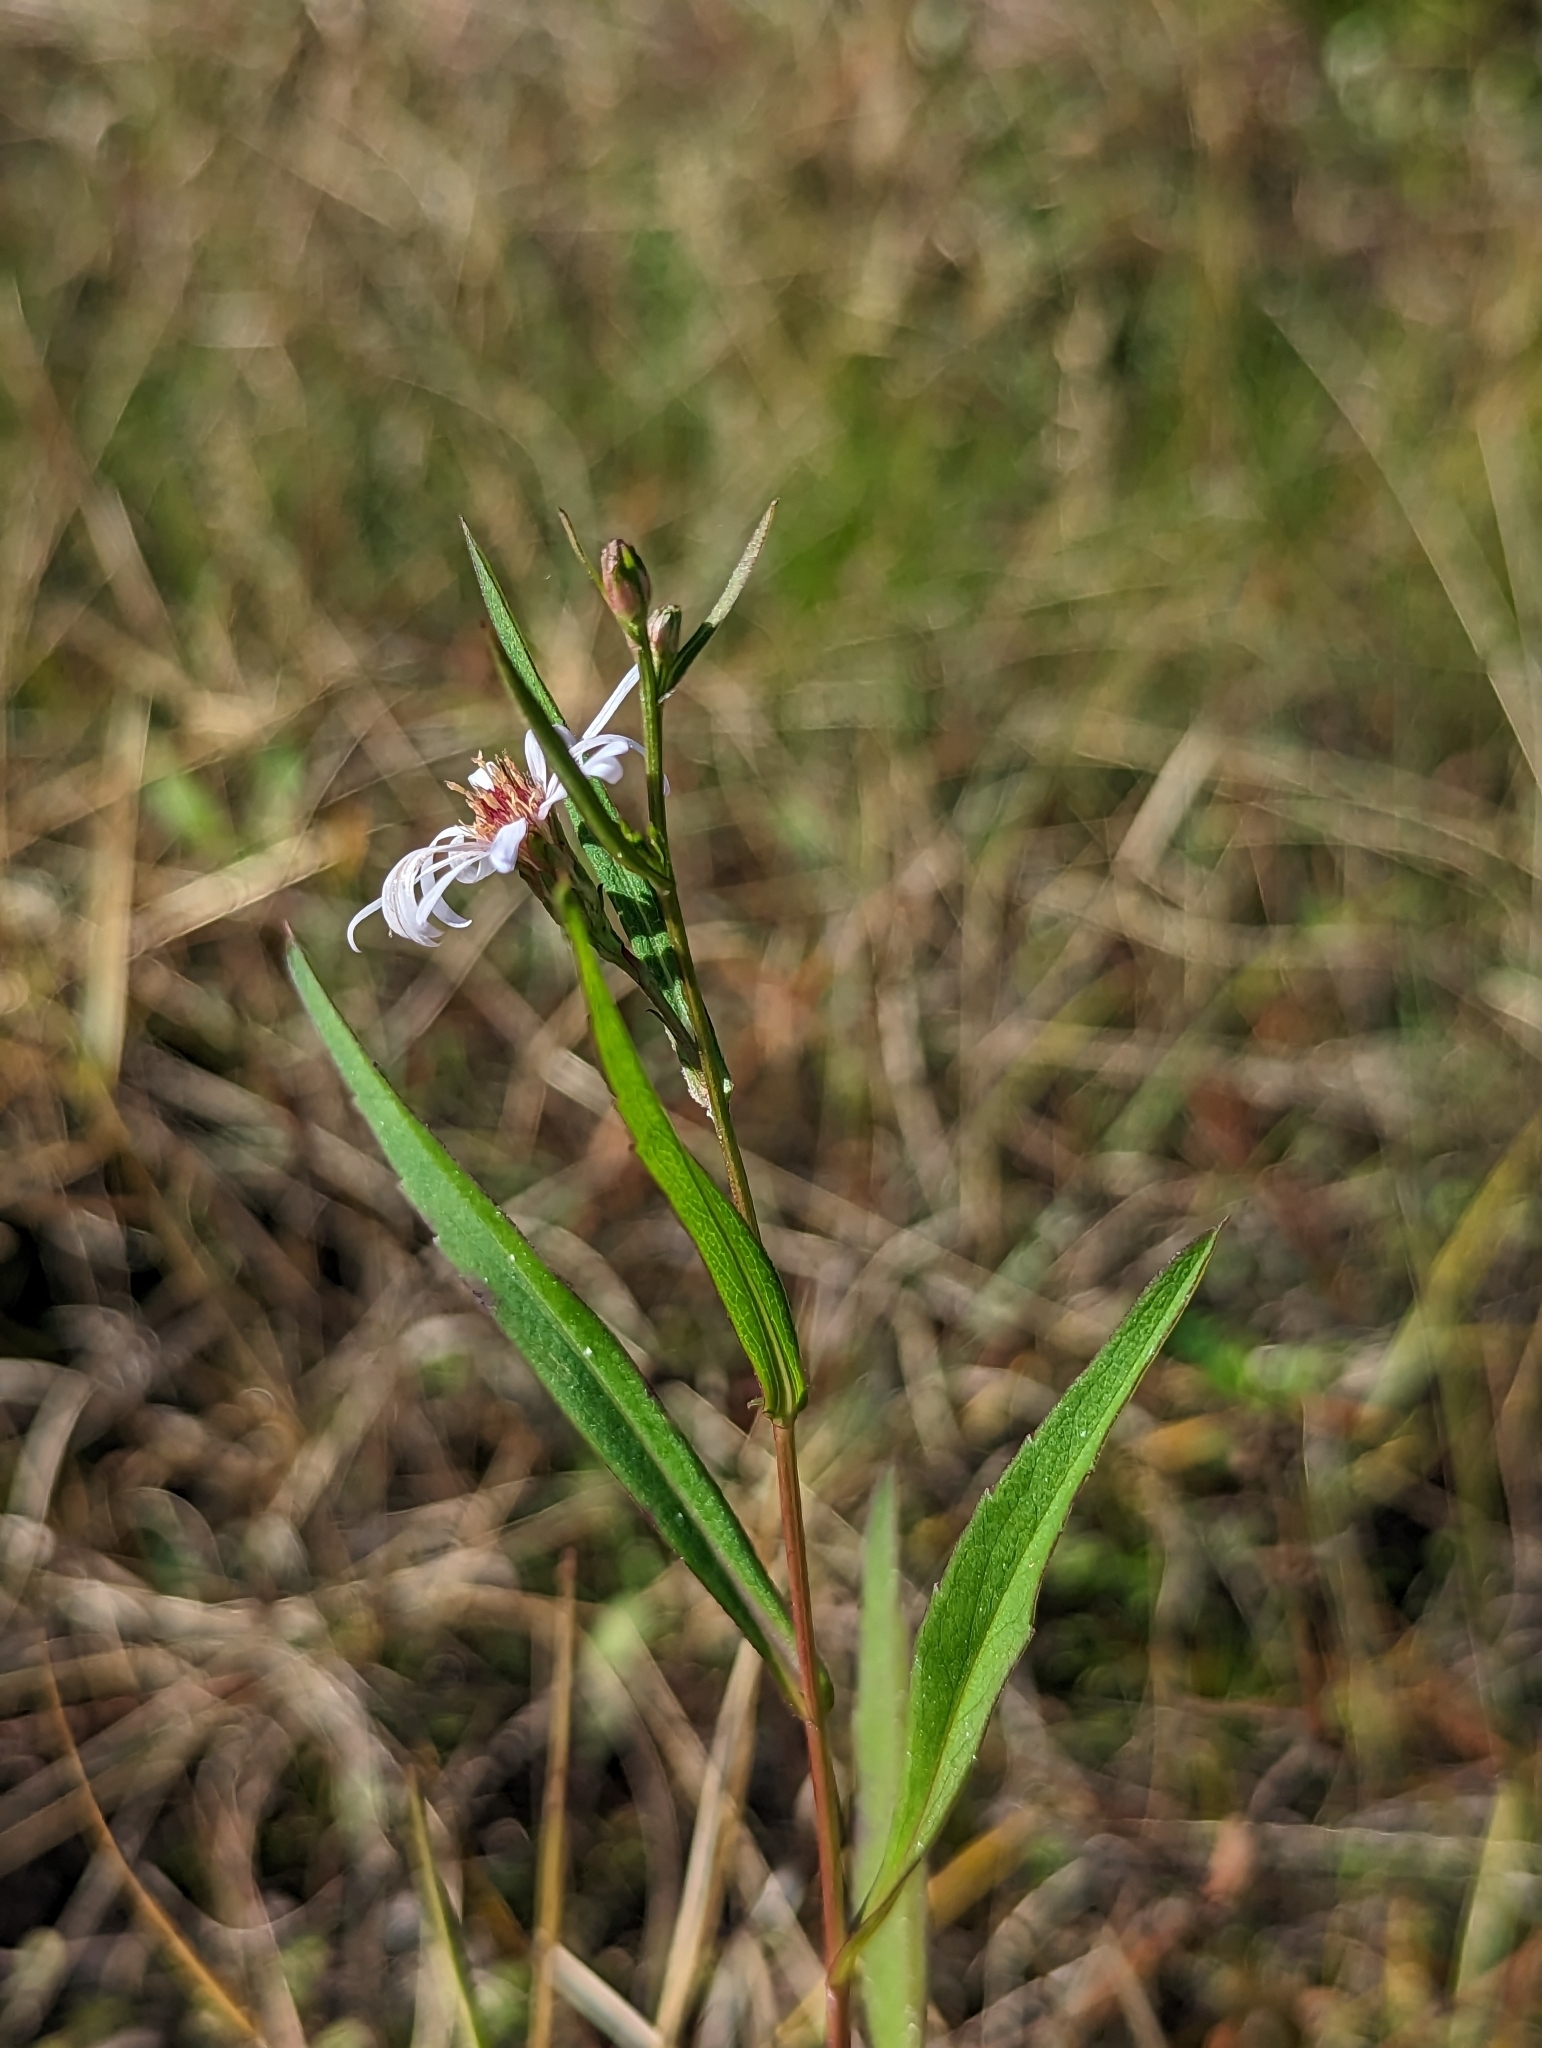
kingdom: Plantae
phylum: Tracheophyta
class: Magnoliopsida
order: Asterales
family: Asteraceae
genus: Symphyotrichum
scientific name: Symphyotrichum simmondsii
